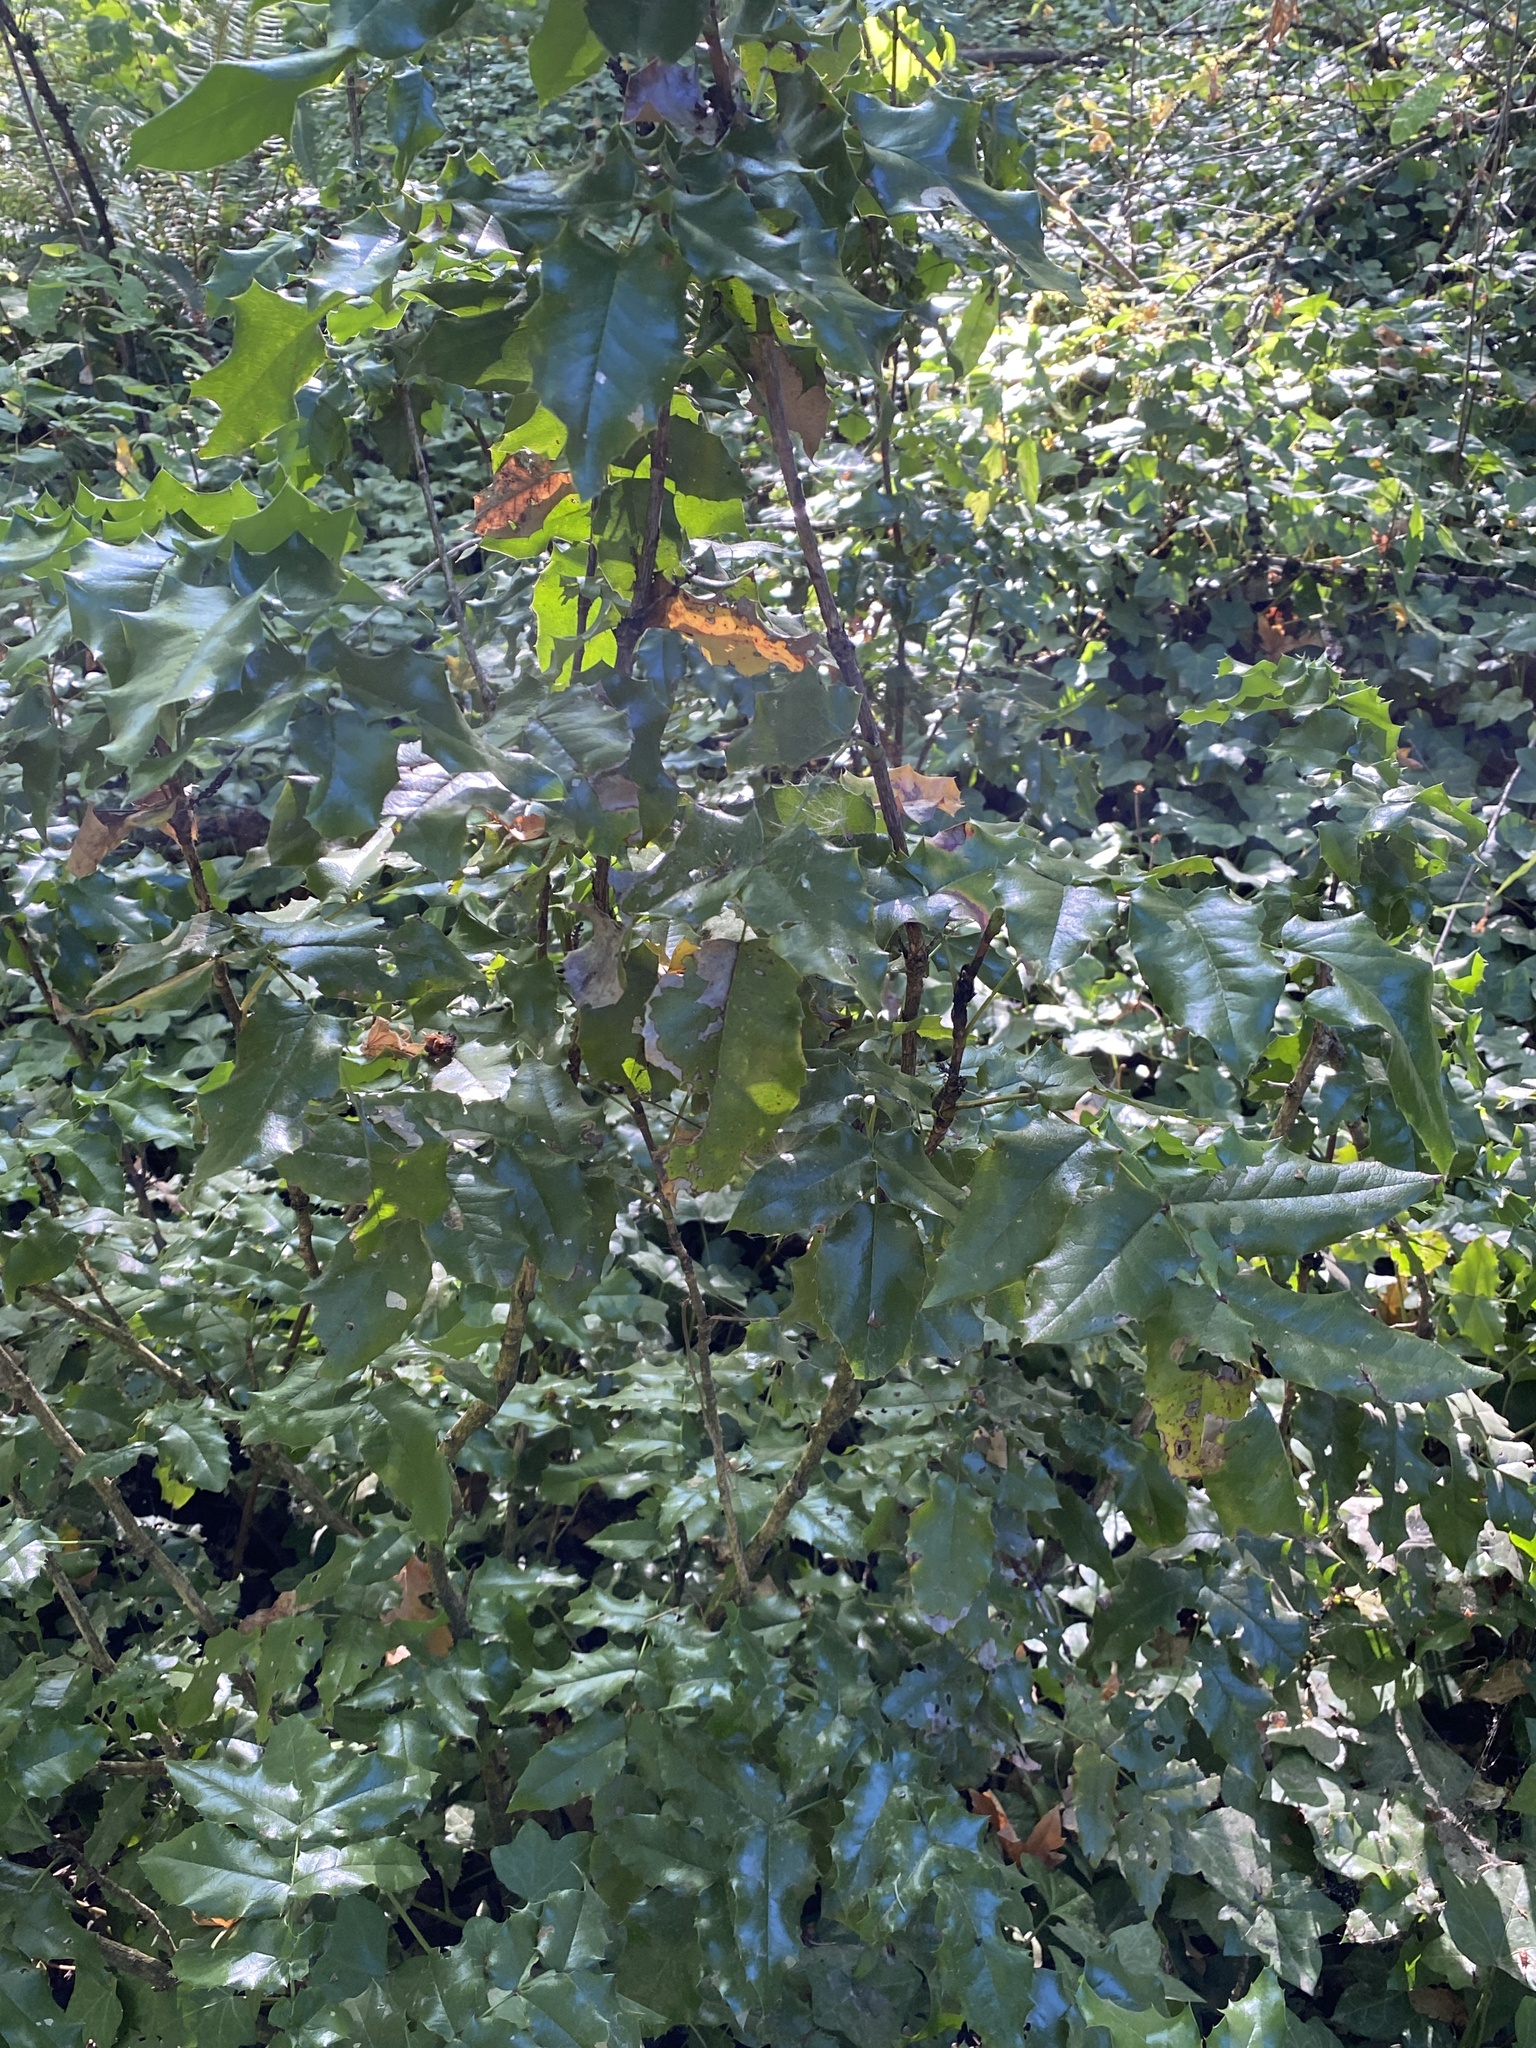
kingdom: Plantae
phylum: Tracheophyta
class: Magnoliopsida
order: Ranunculales
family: Berberidaceae
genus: Mahonia
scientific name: Mahonia aquifolium
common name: Oregon-grape
